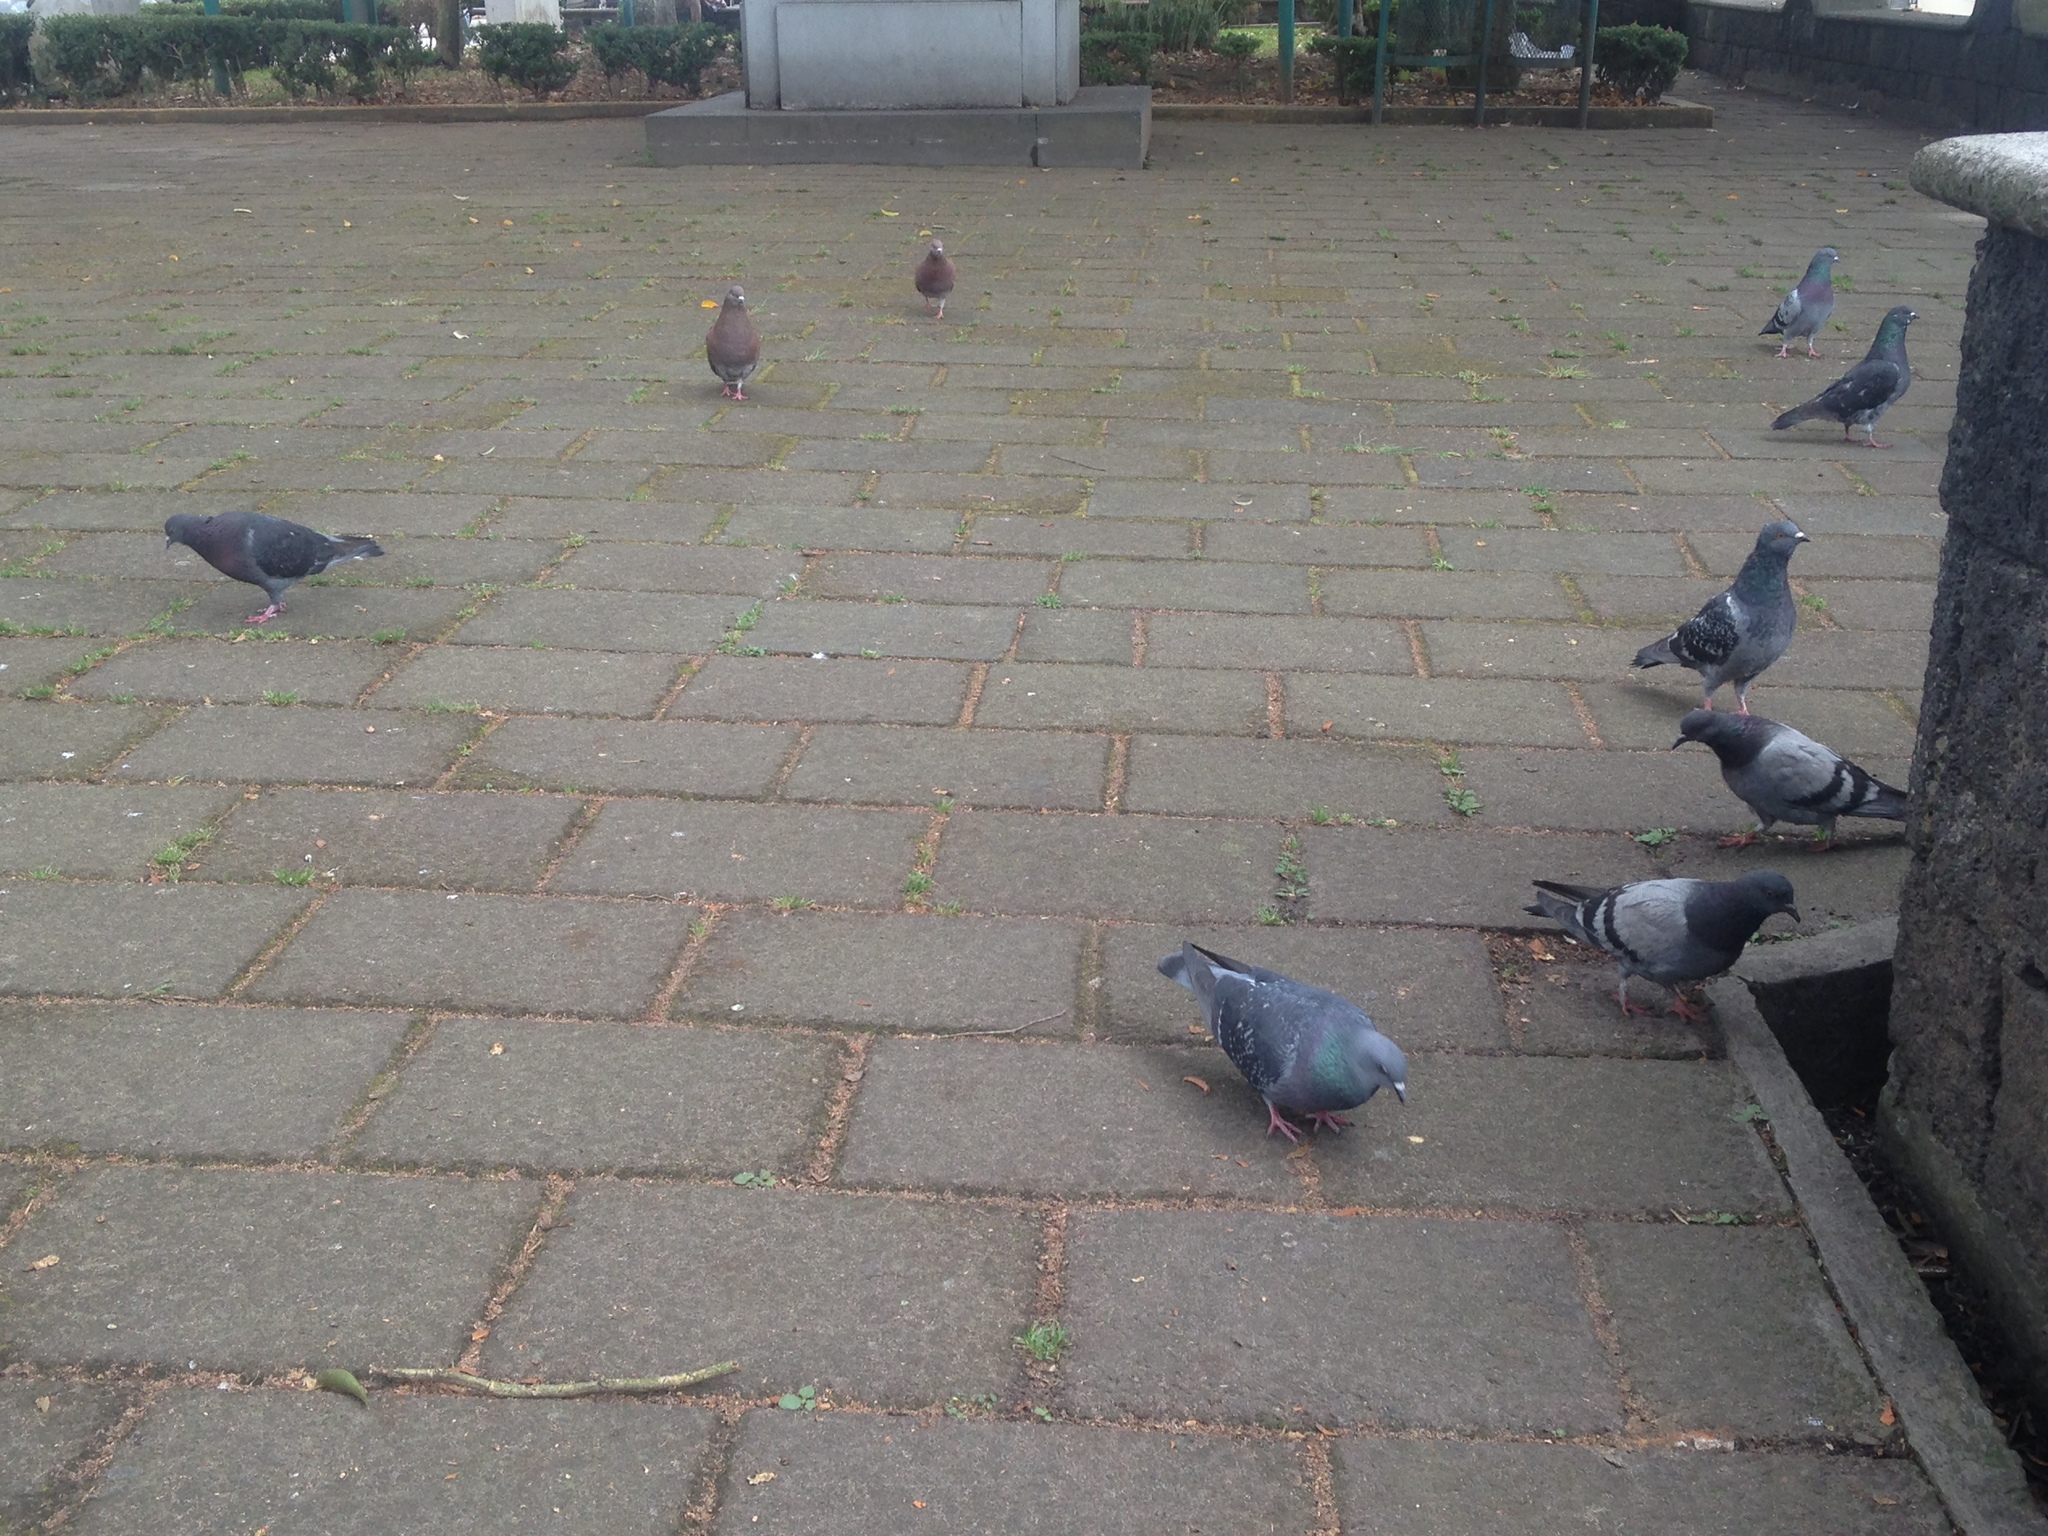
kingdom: Animalia
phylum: Chordata
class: Aves
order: Columbiformes
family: Columbidae
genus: Columba
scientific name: Columba livia
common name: Rock pigeon
